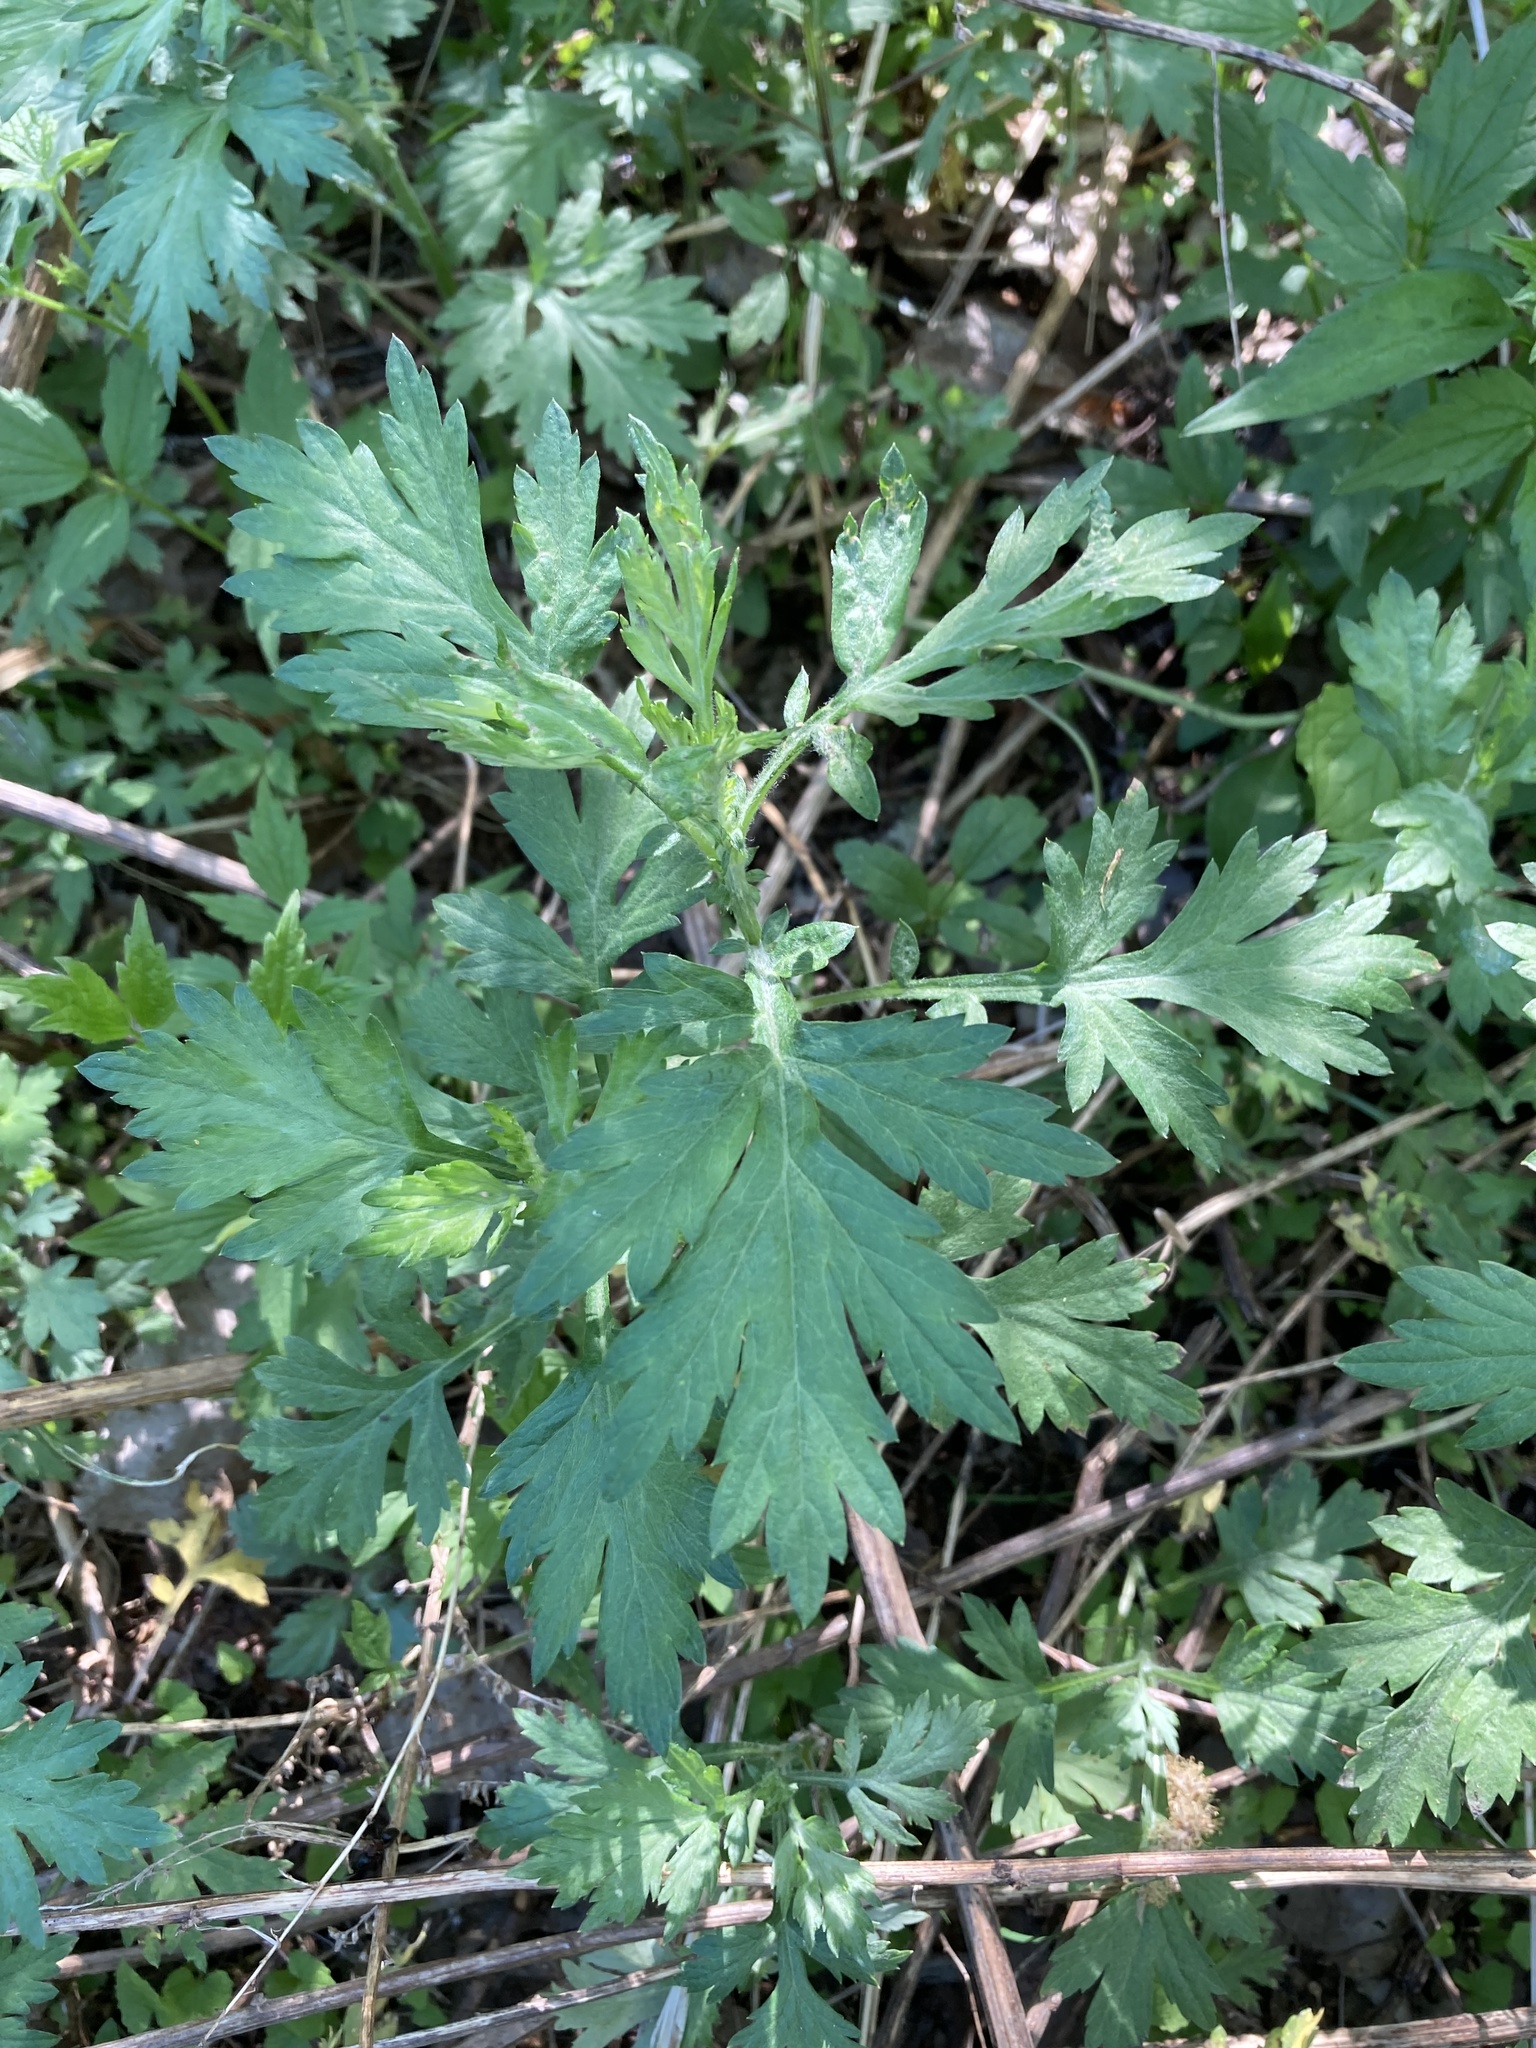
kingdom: Plantae
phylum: Tracheophyta
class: Magnoliopsida
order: Asterales
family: Asteraceae
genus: Artemisia
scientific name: Artemisia vulgaris
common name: Mugwort
